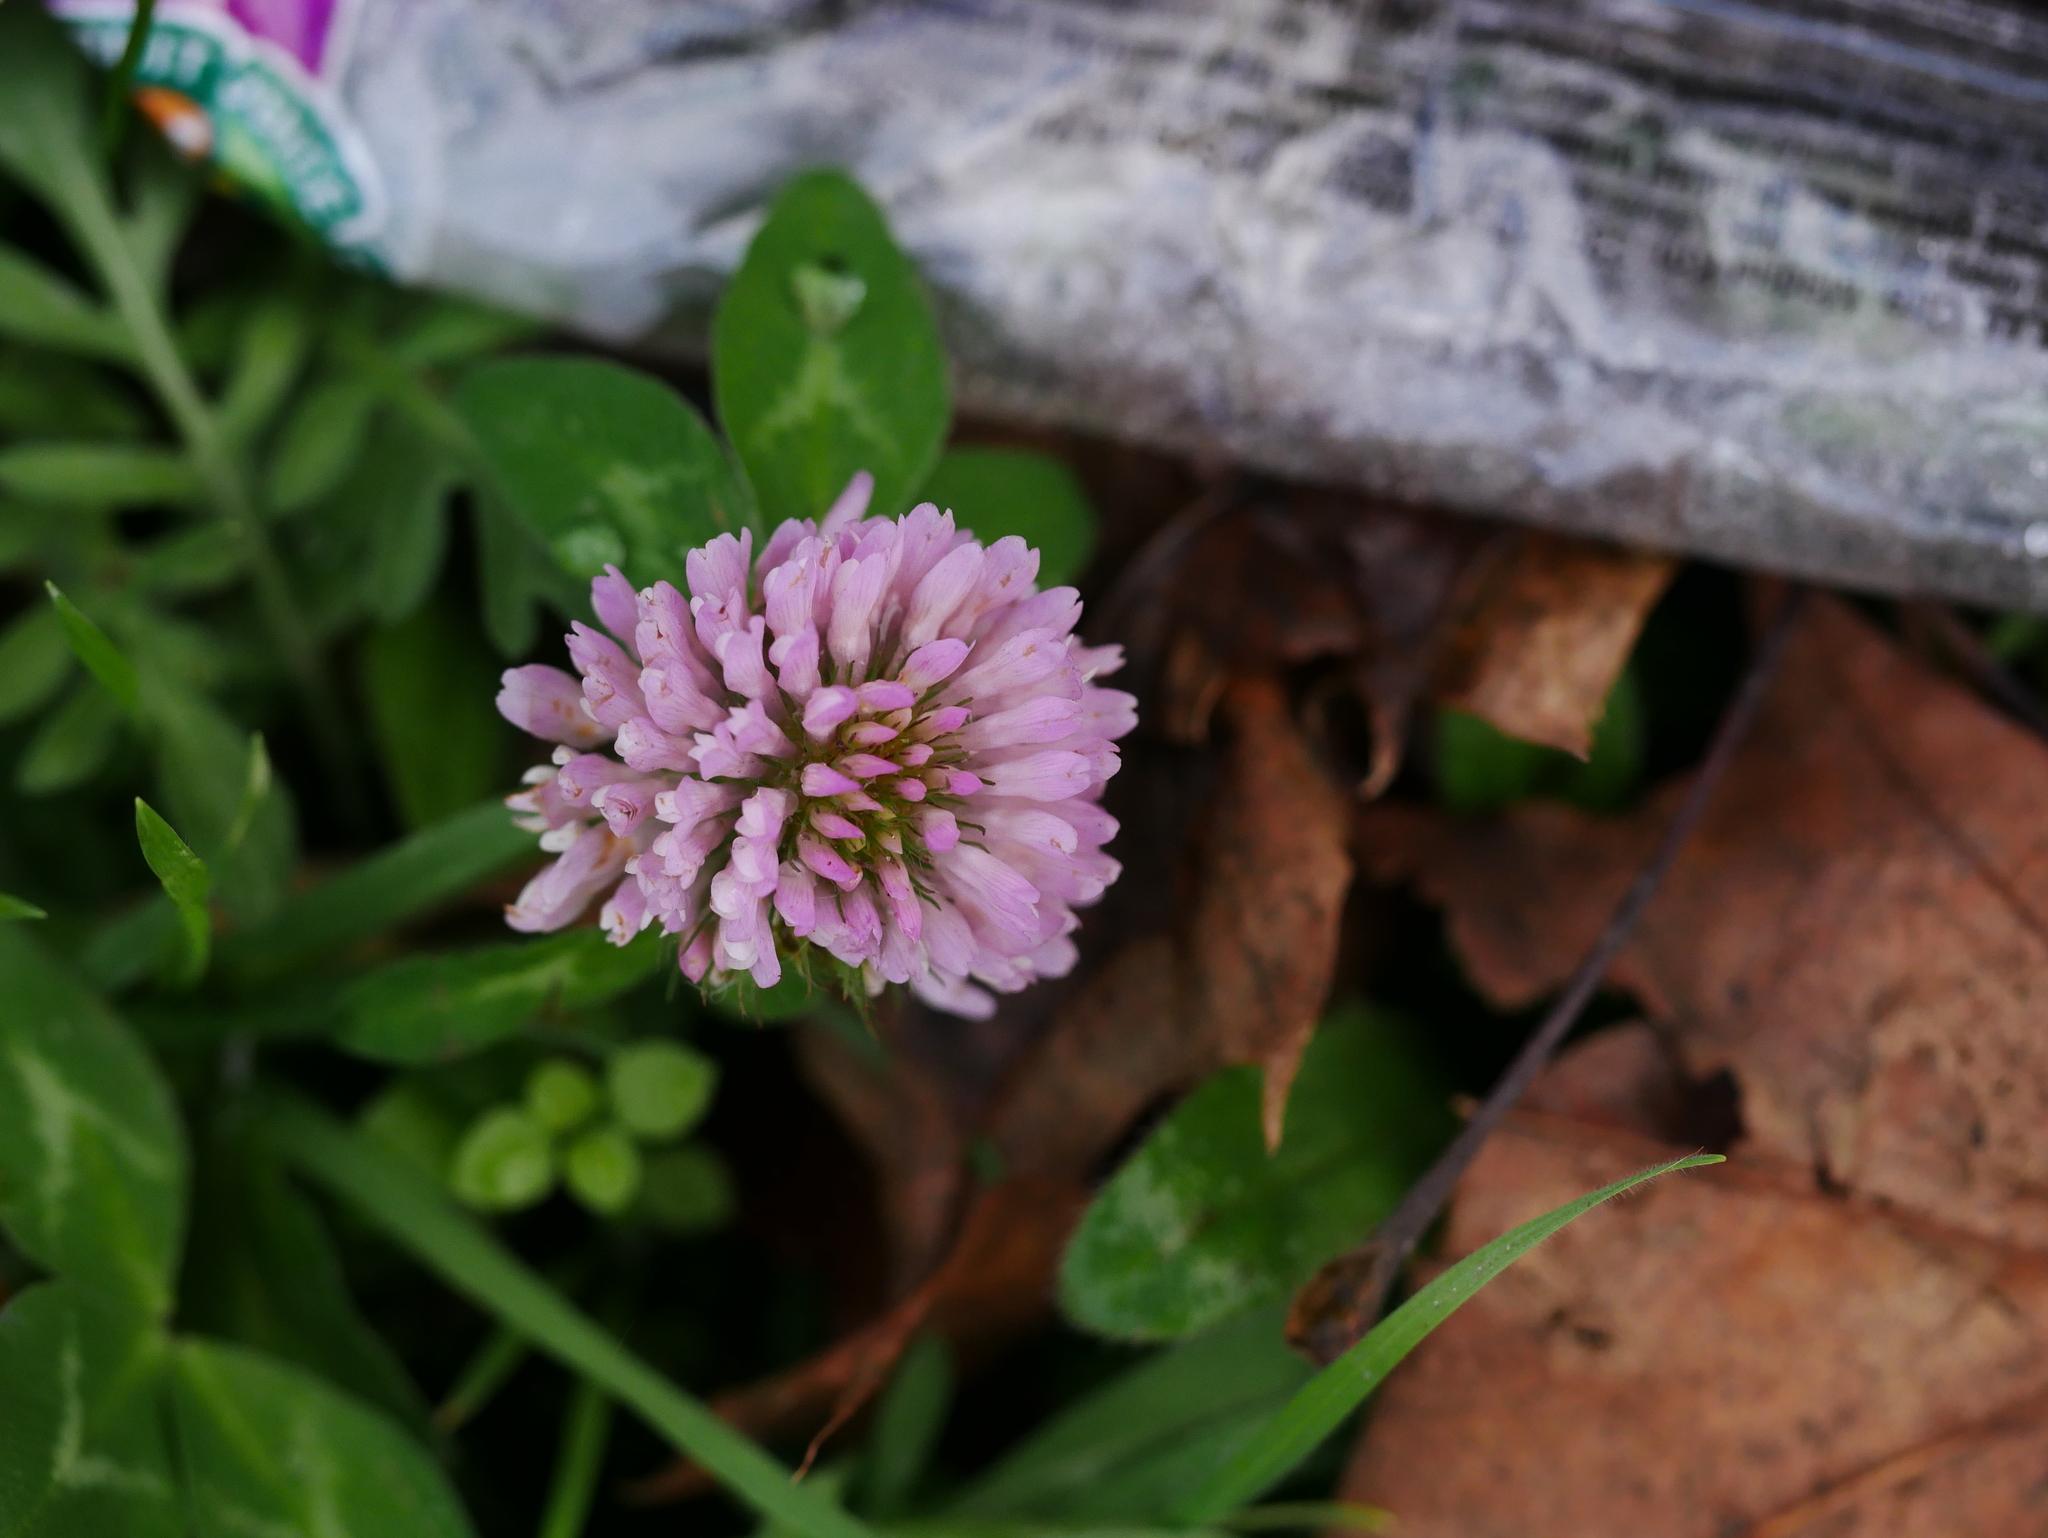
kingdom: Plantae
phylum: Tracheophyta
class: Magnoliopsida
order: Fabales
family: Fabaceae
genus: Trifolium
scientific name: Trifolium pratense
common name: Red clover
